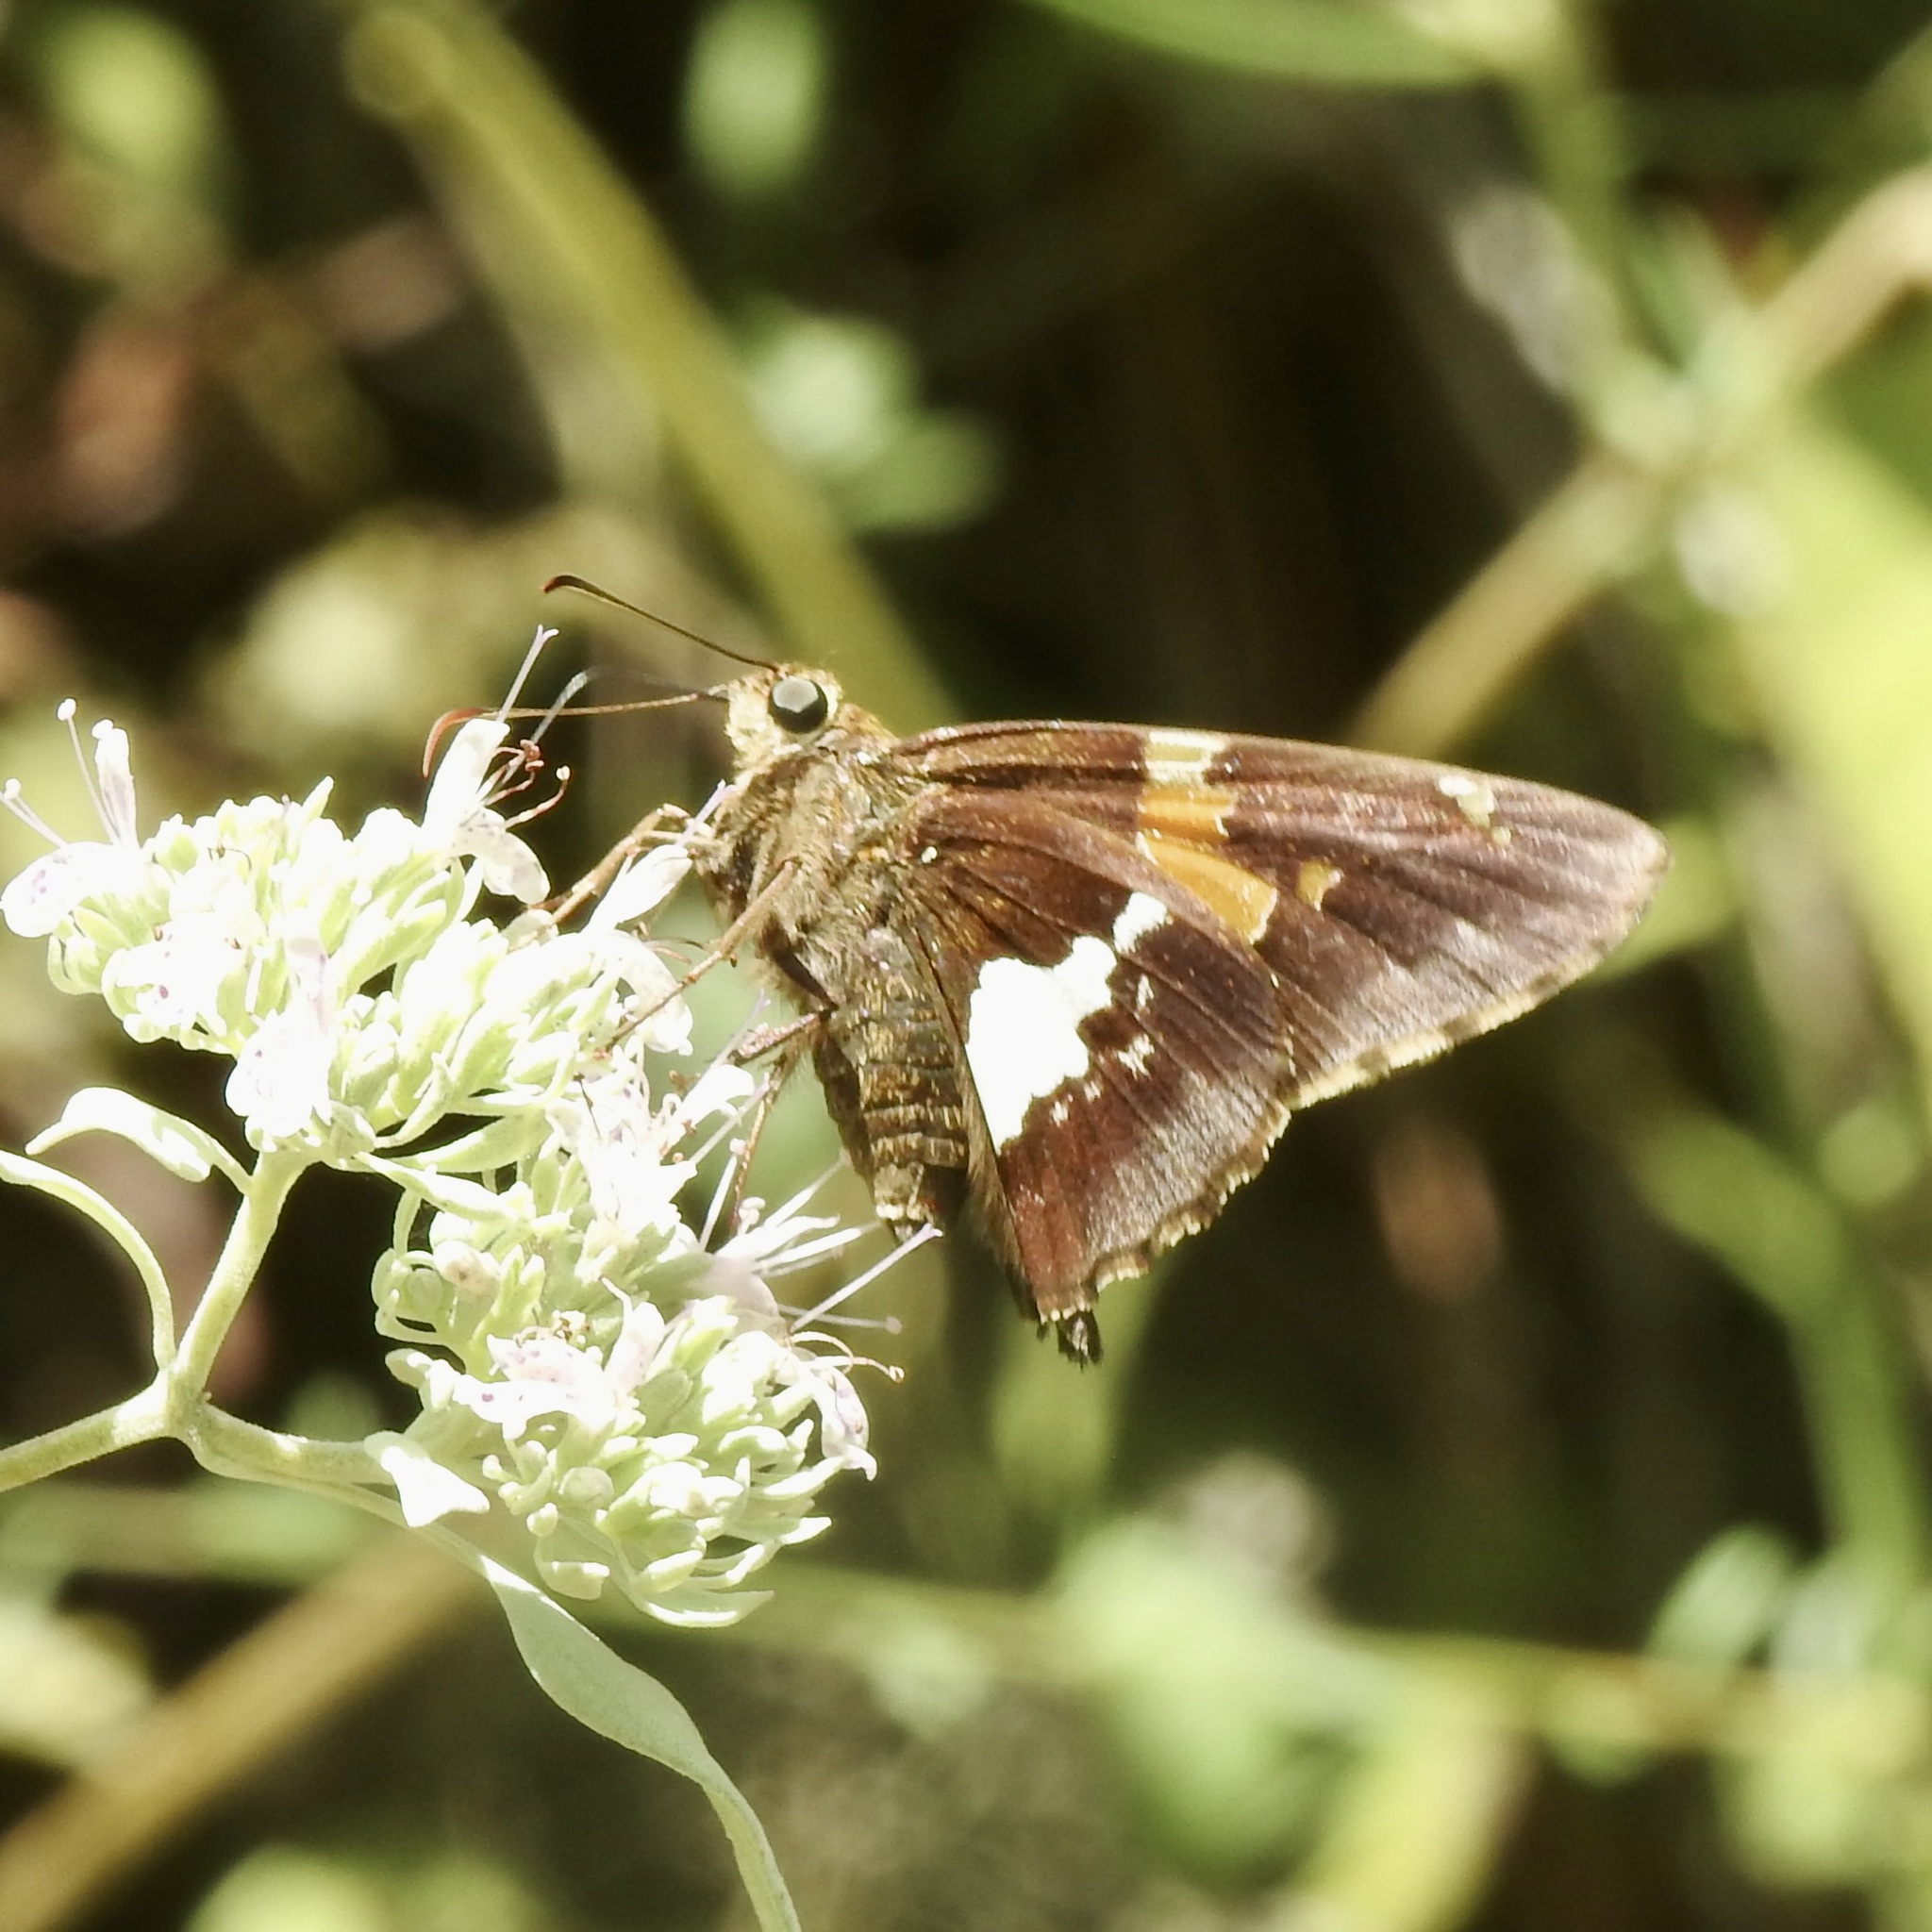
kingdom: Animalia
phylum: Arthropoda
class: Insecta
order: Lepidoptera
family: Hesperiidae
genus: Epargyreus
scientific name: Epargyreus clarus
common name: Silver-spotted skipper
